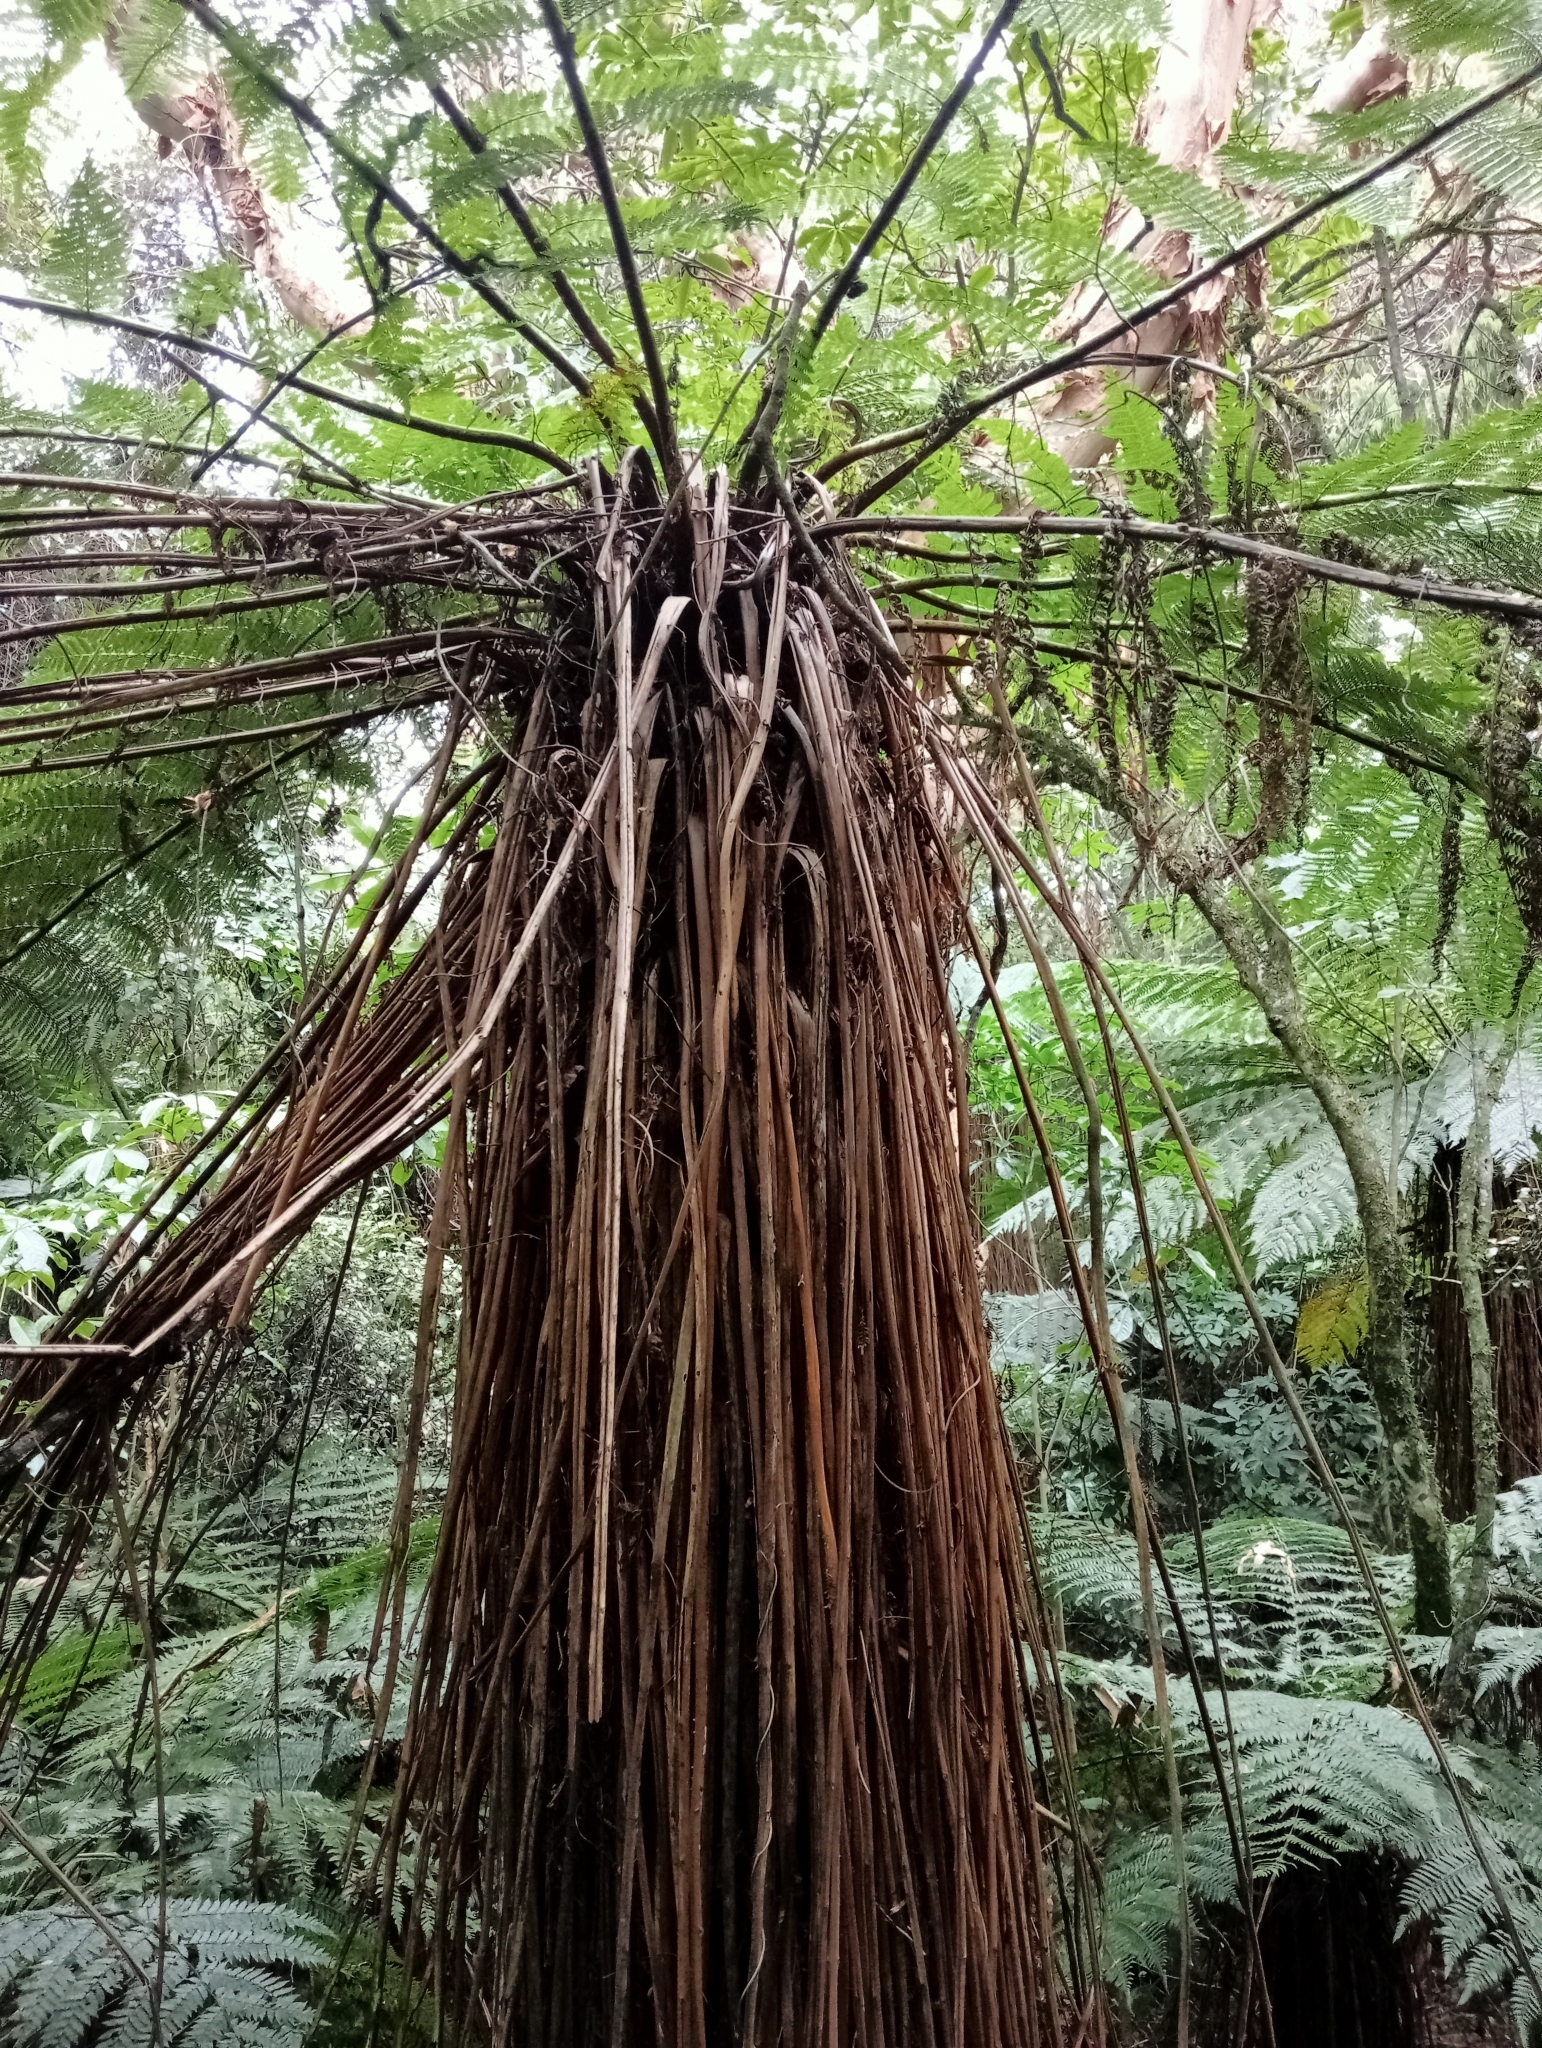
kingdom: Plantae
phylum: Tracheophyta
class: Polypodiopsida
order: Cyatheales
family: Cyatheaceae
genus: Alsophila
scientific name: Alsophila smithii
